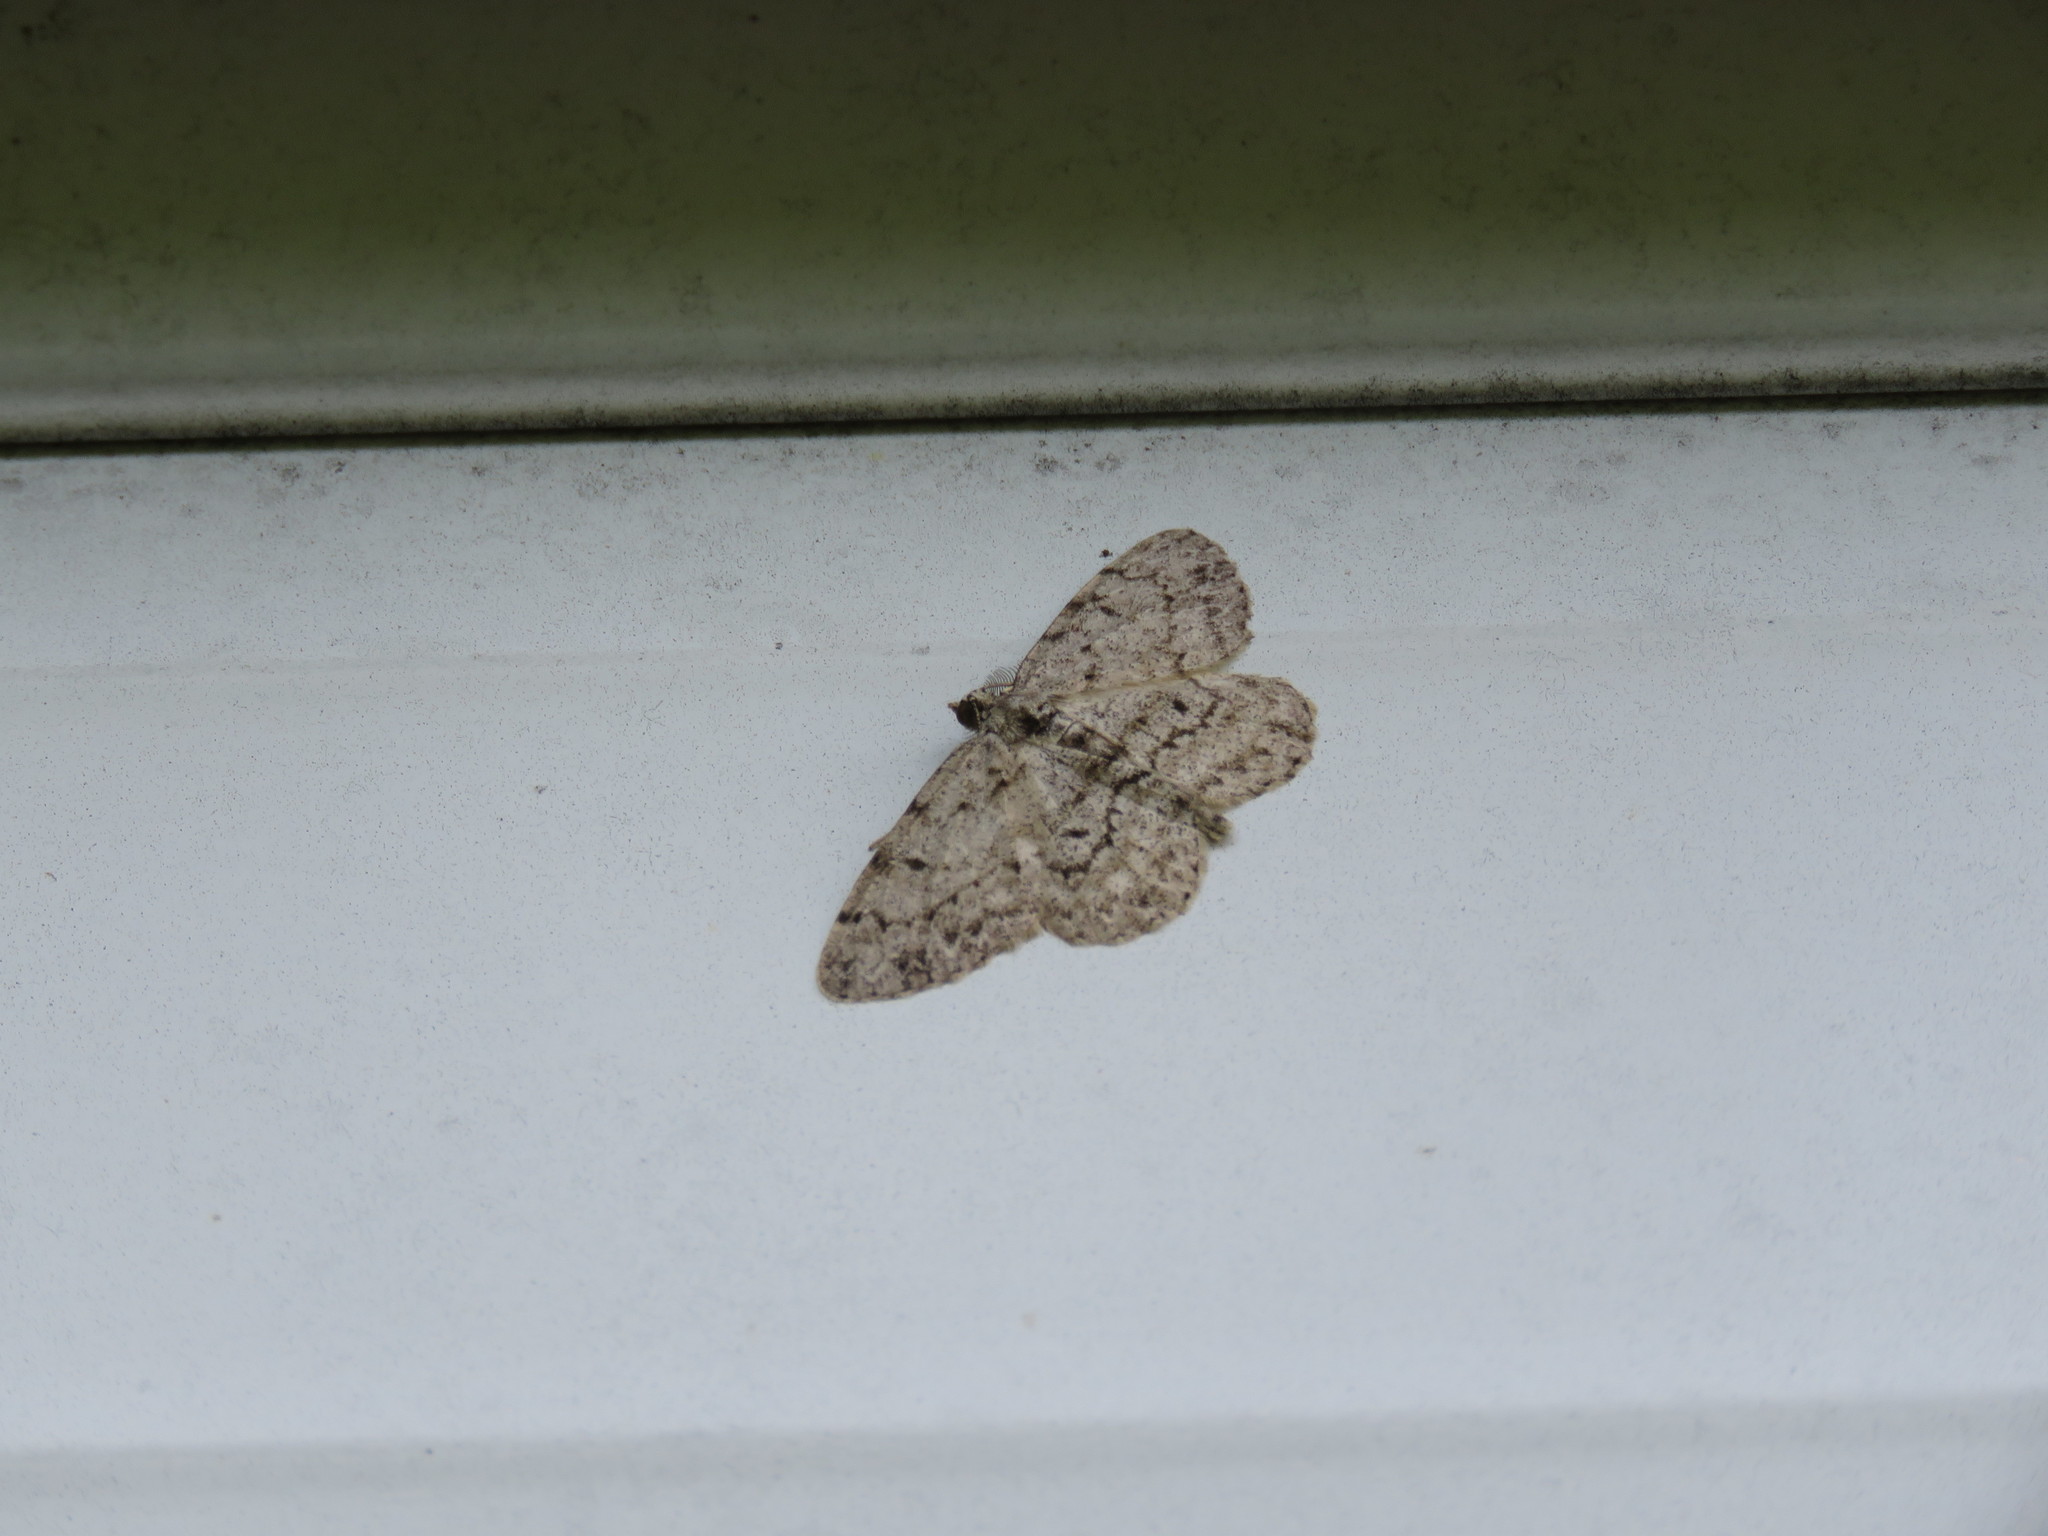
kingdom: Animalia
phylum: Arthropoda
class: Insecta
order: Lepidoptera
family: Geometridae
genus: Protoboarmia
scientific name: Protoboarmia porcelaria
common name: Porcelain gray
